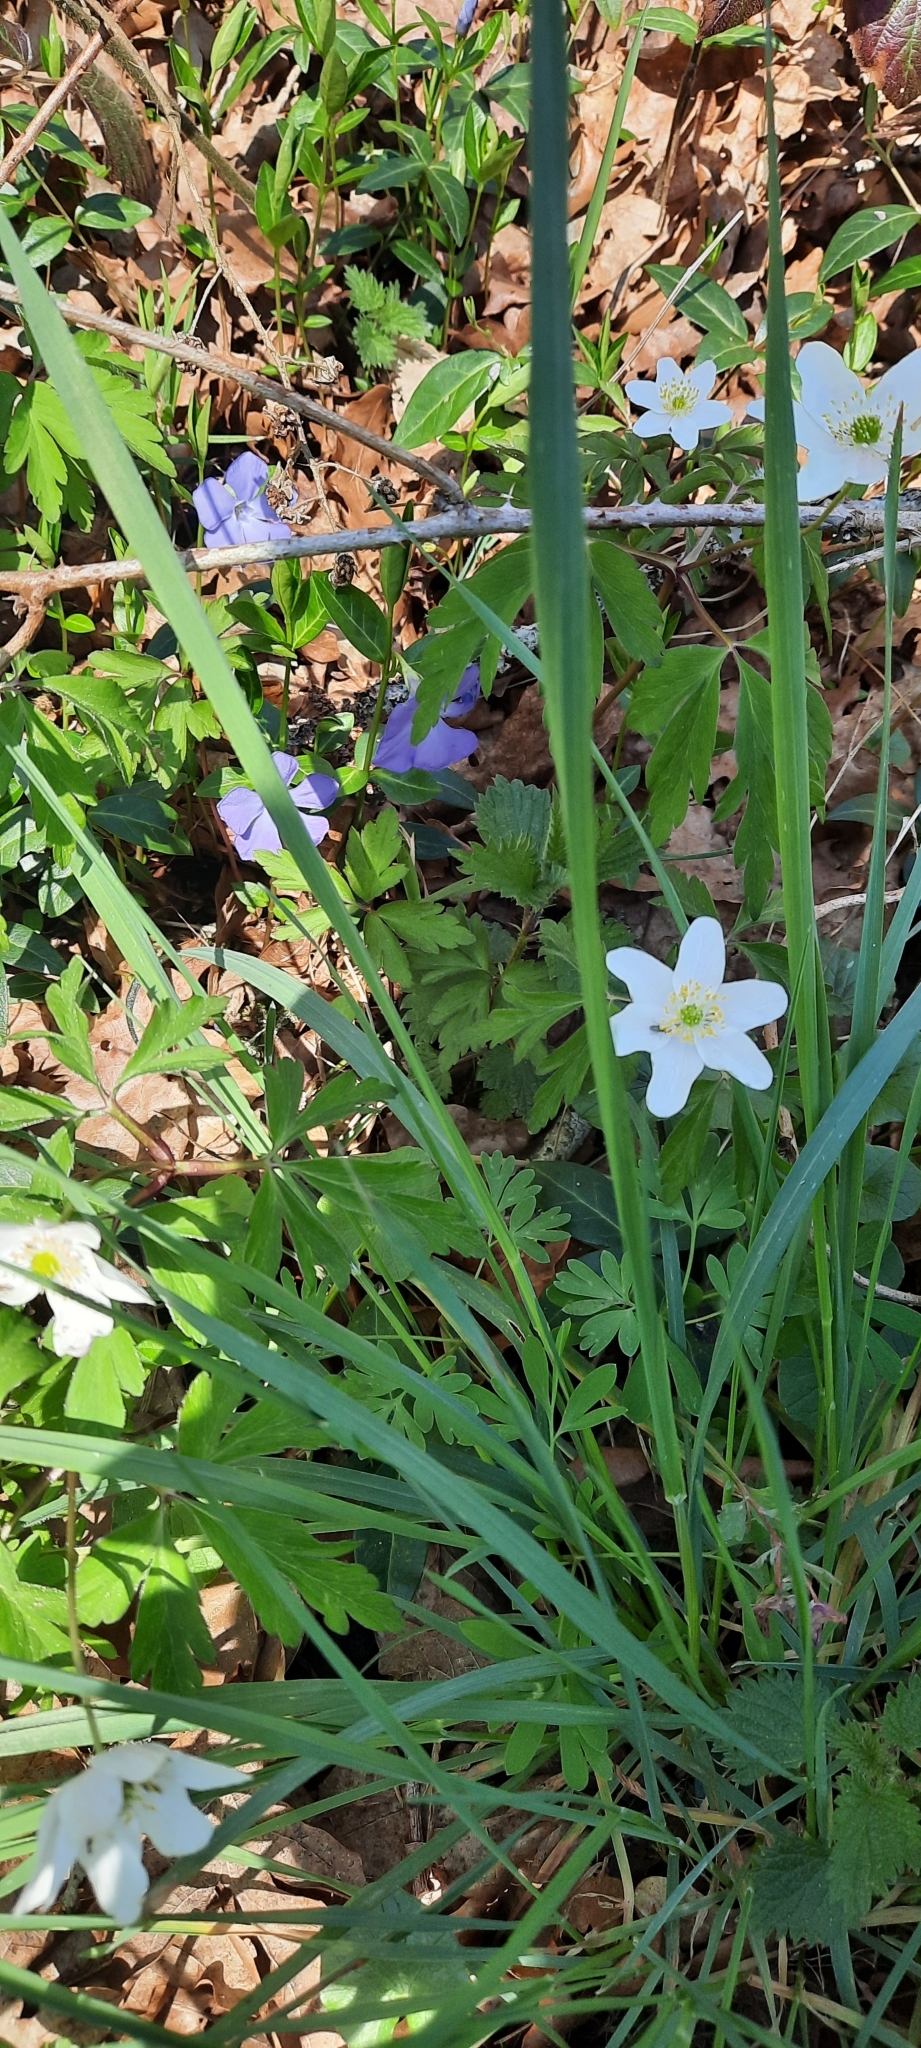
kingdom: Plantae
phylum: Tracheophyta
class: Magnoliopsida
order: Ranunculales
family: Ranunculaceae
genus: Anemone
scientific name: Anemone nemorosa
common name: Wood anemone
